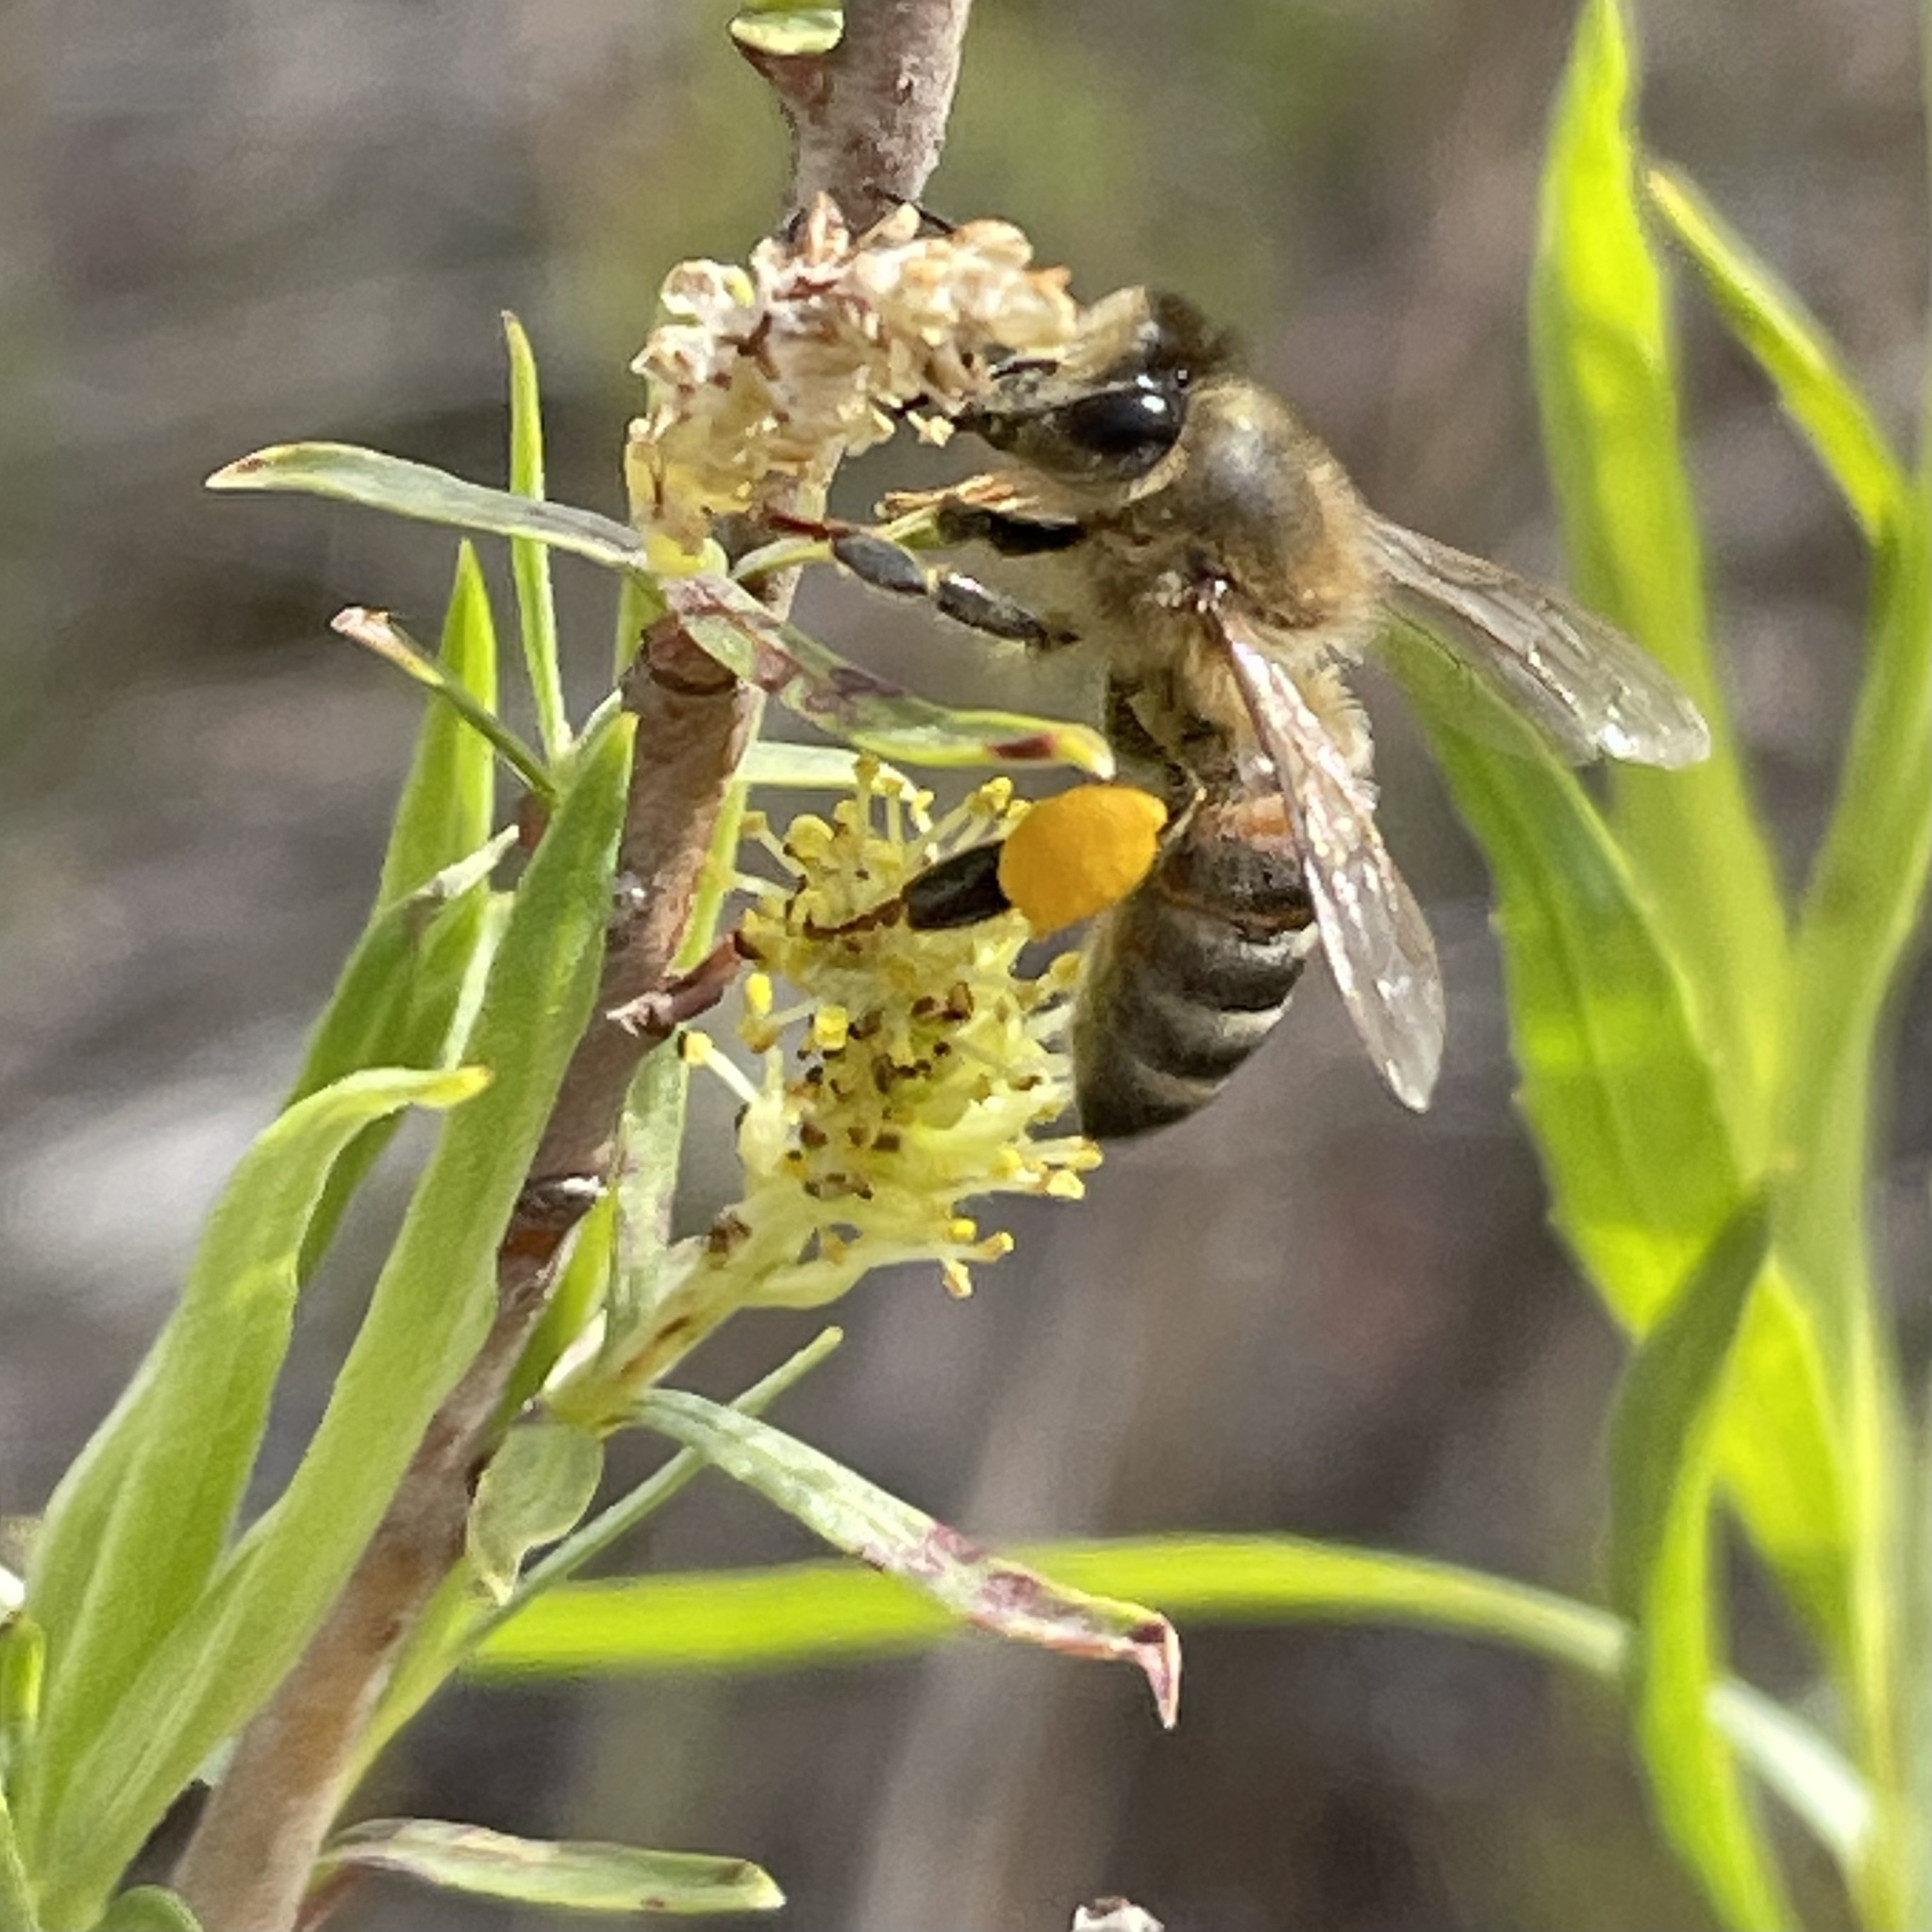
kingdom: Animalia
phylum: Arthropoda
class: Insecta
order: Hymenoptera
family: Apidae
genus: Apis
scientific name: Apis mellifera
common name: Honey bee
